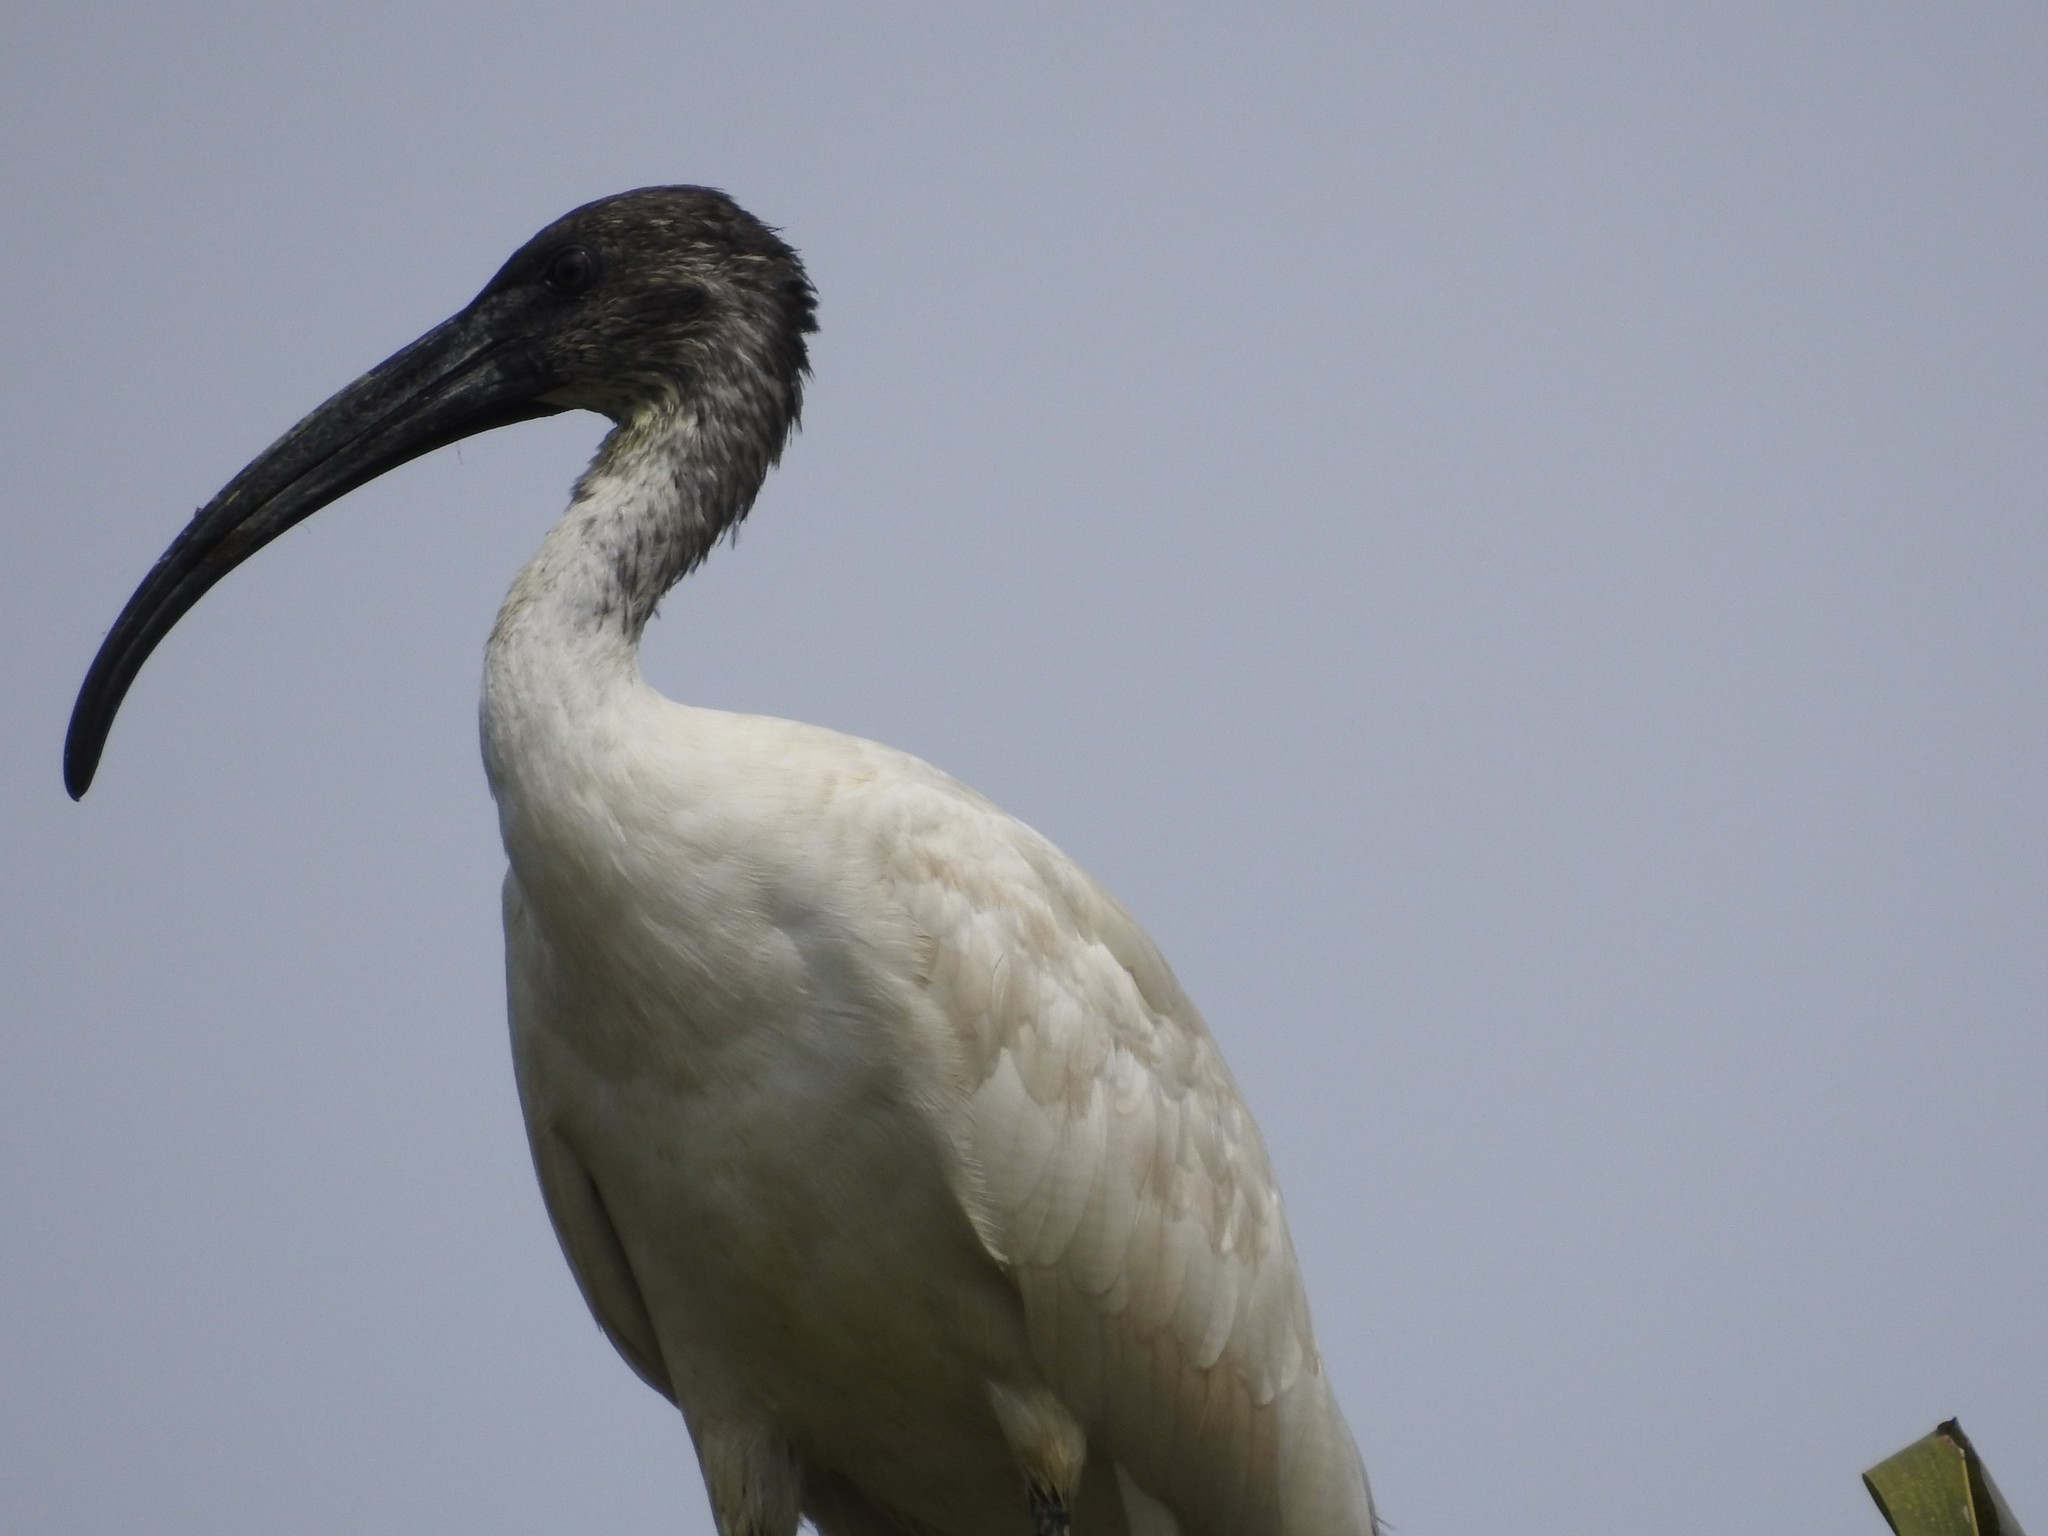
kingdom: Animalia
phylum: Chordata
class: Aves
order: Pelecaniformes
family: Threskiornithidae
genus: Threskiornis
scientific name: Threskiornis melanocephalus
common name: Black-headed ibis
